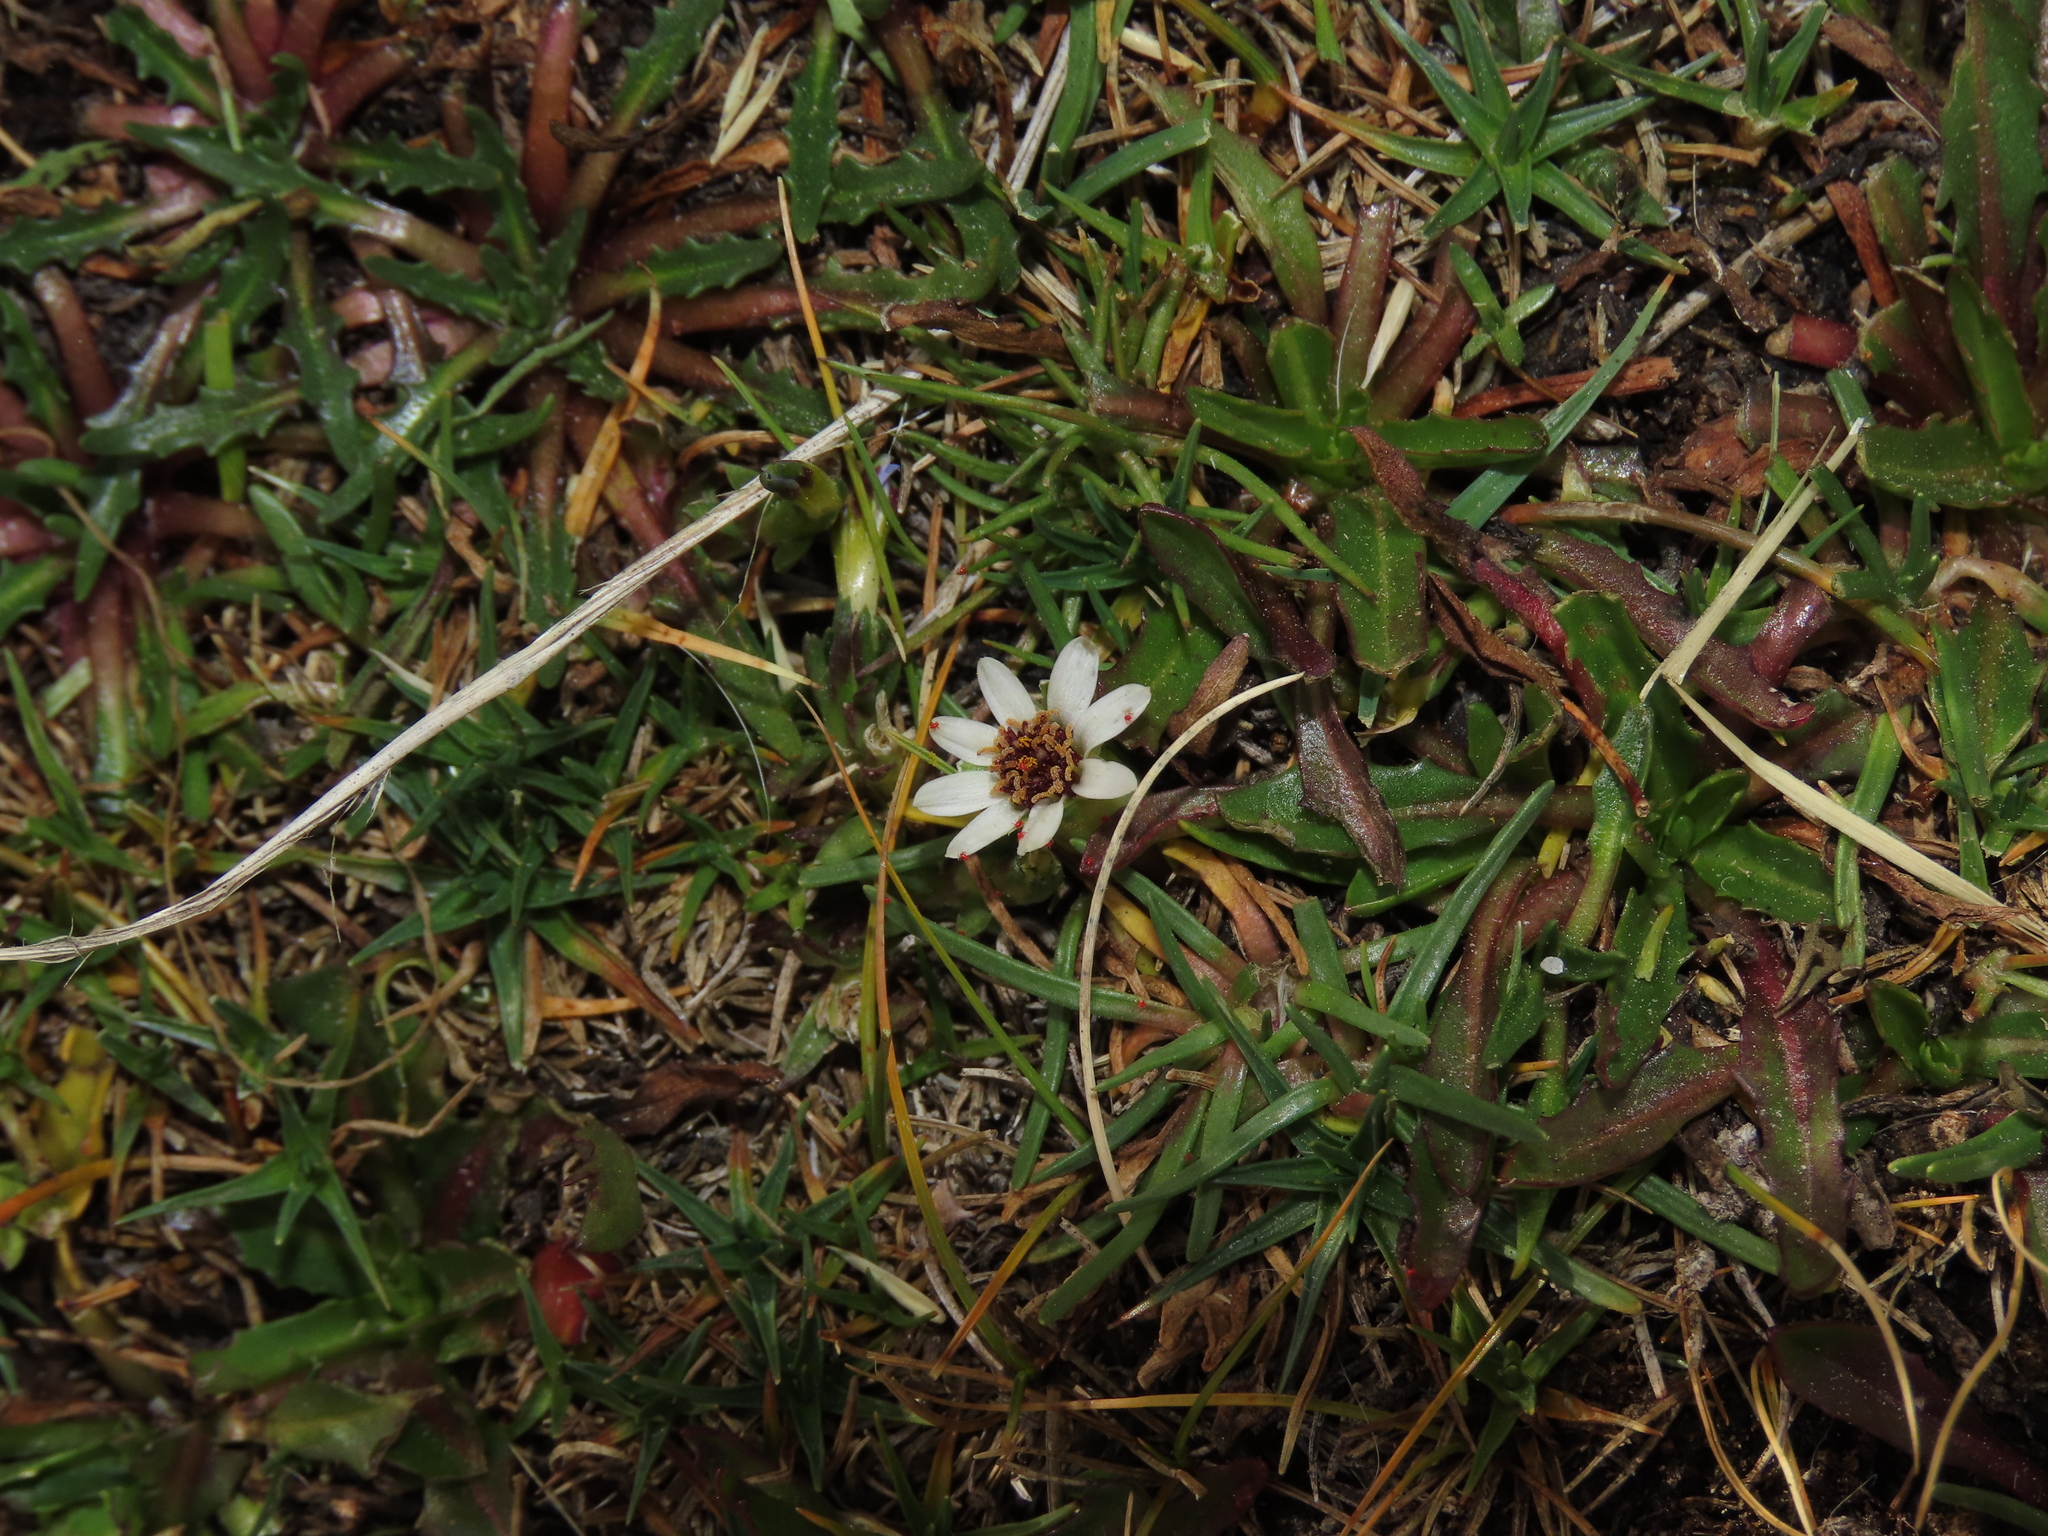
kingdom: Plantae
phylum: Tracheophyta
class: Magnoliopsida
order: Asterales
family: Asteraceae
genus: Rockhausenia
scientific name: Rockhausenia pygmaea
